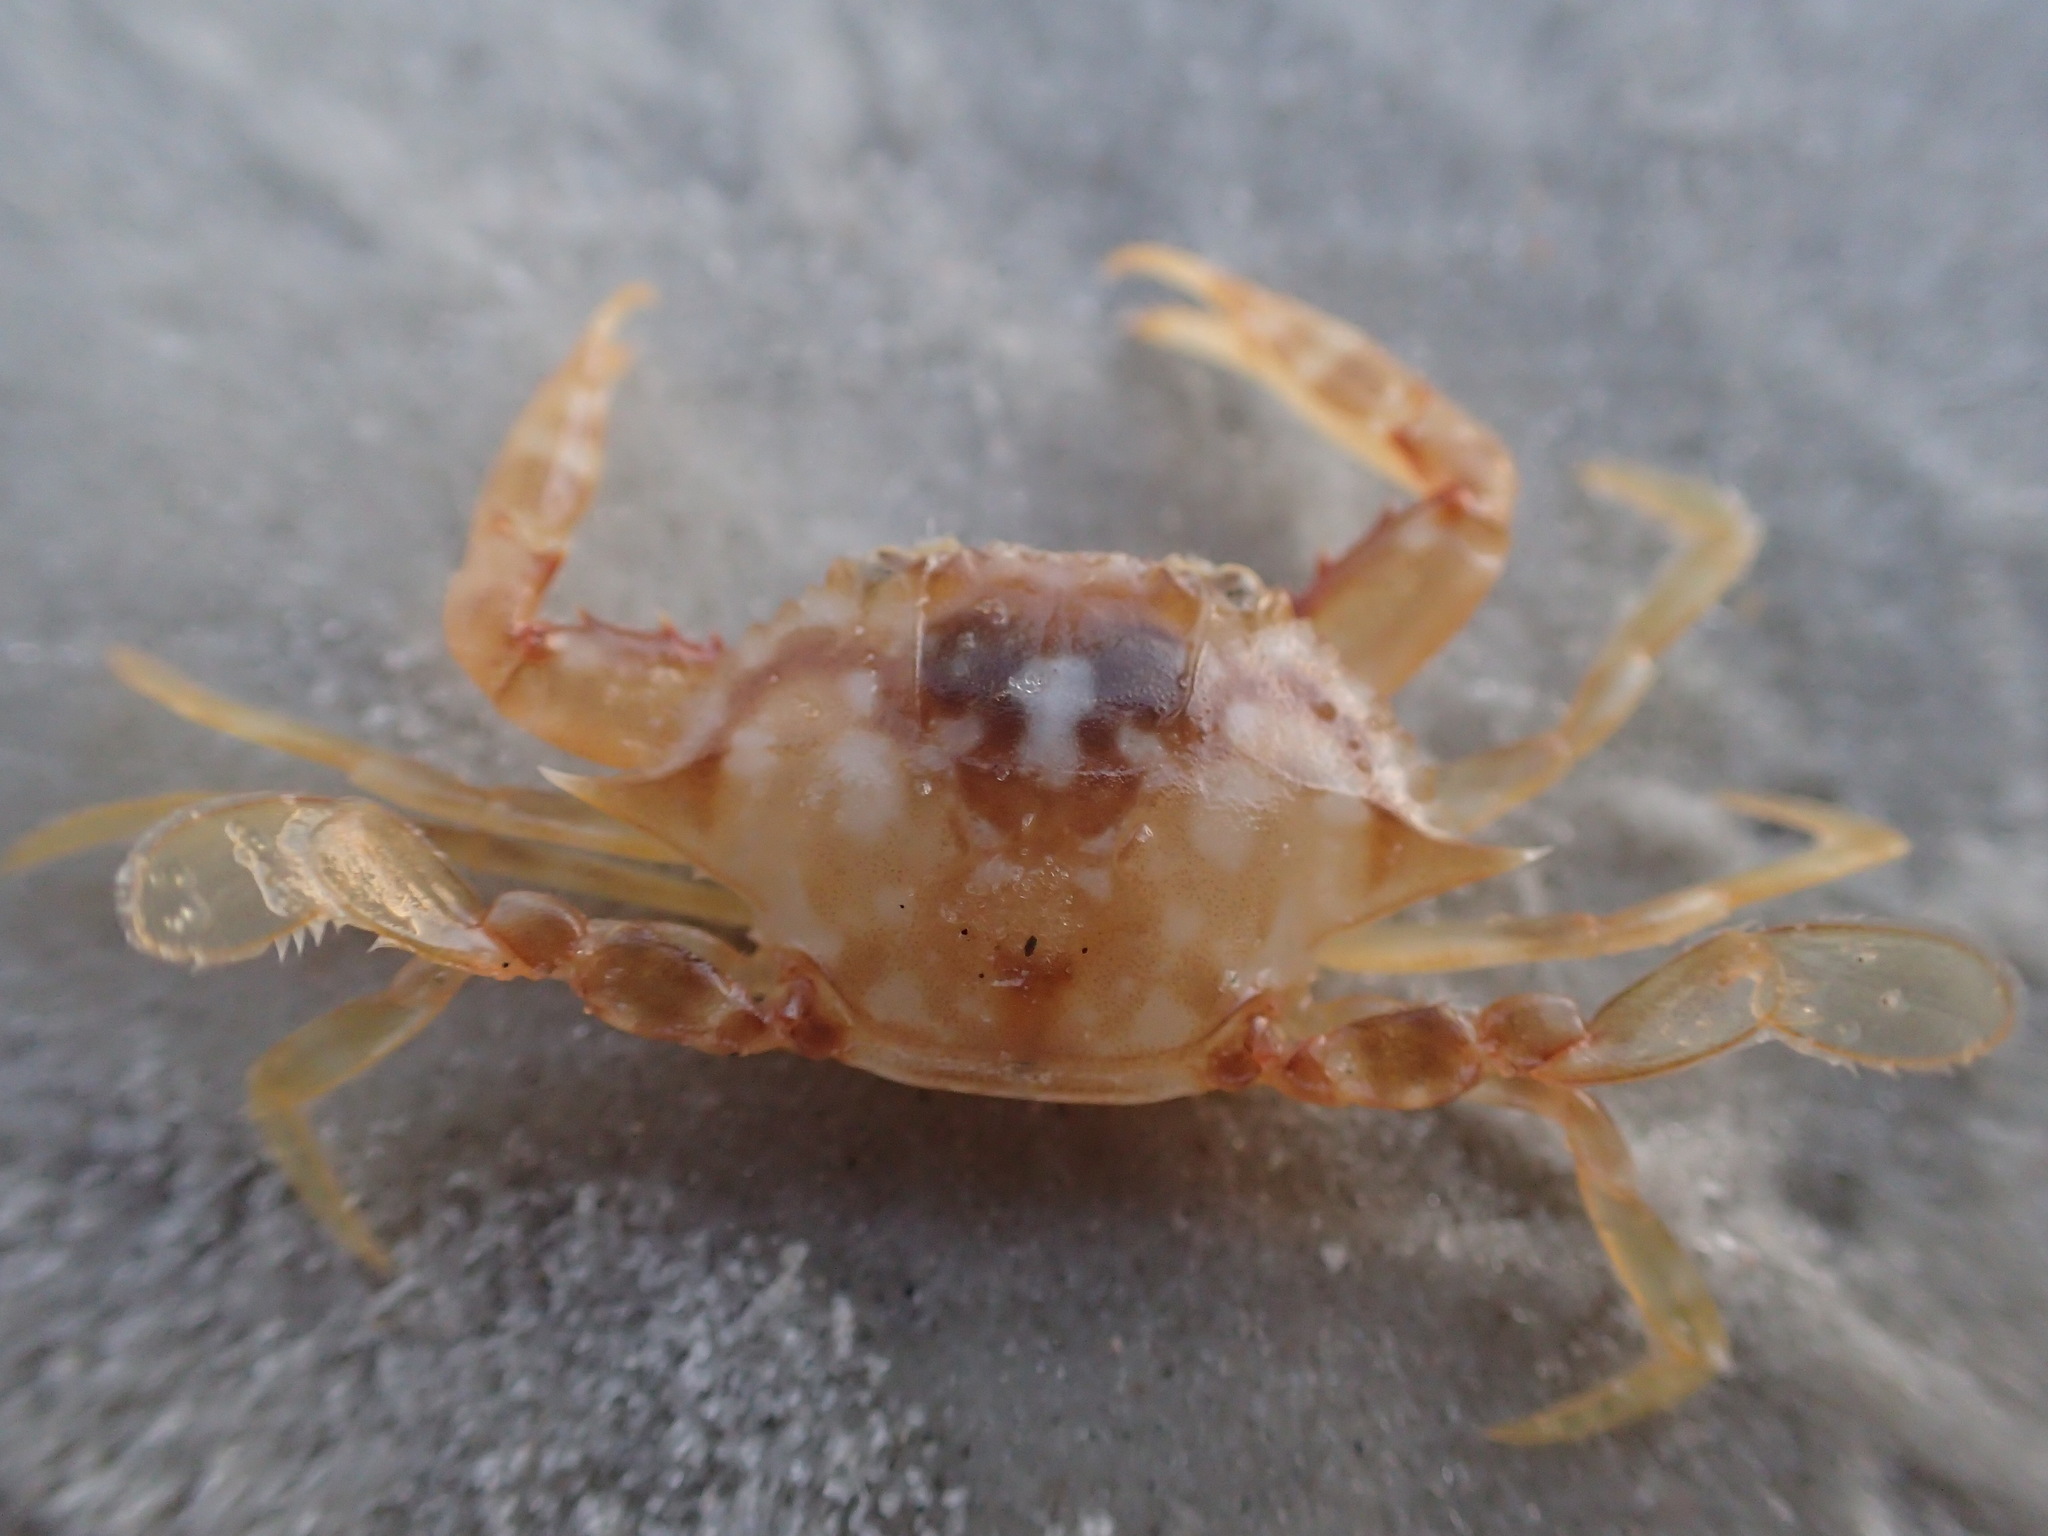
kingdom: Animalia
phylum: Arthropoda
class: Malacostraca
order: Decapoda
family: Portunidae
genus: Portunus
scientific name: Portunus sayi
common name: Sargassum crab
